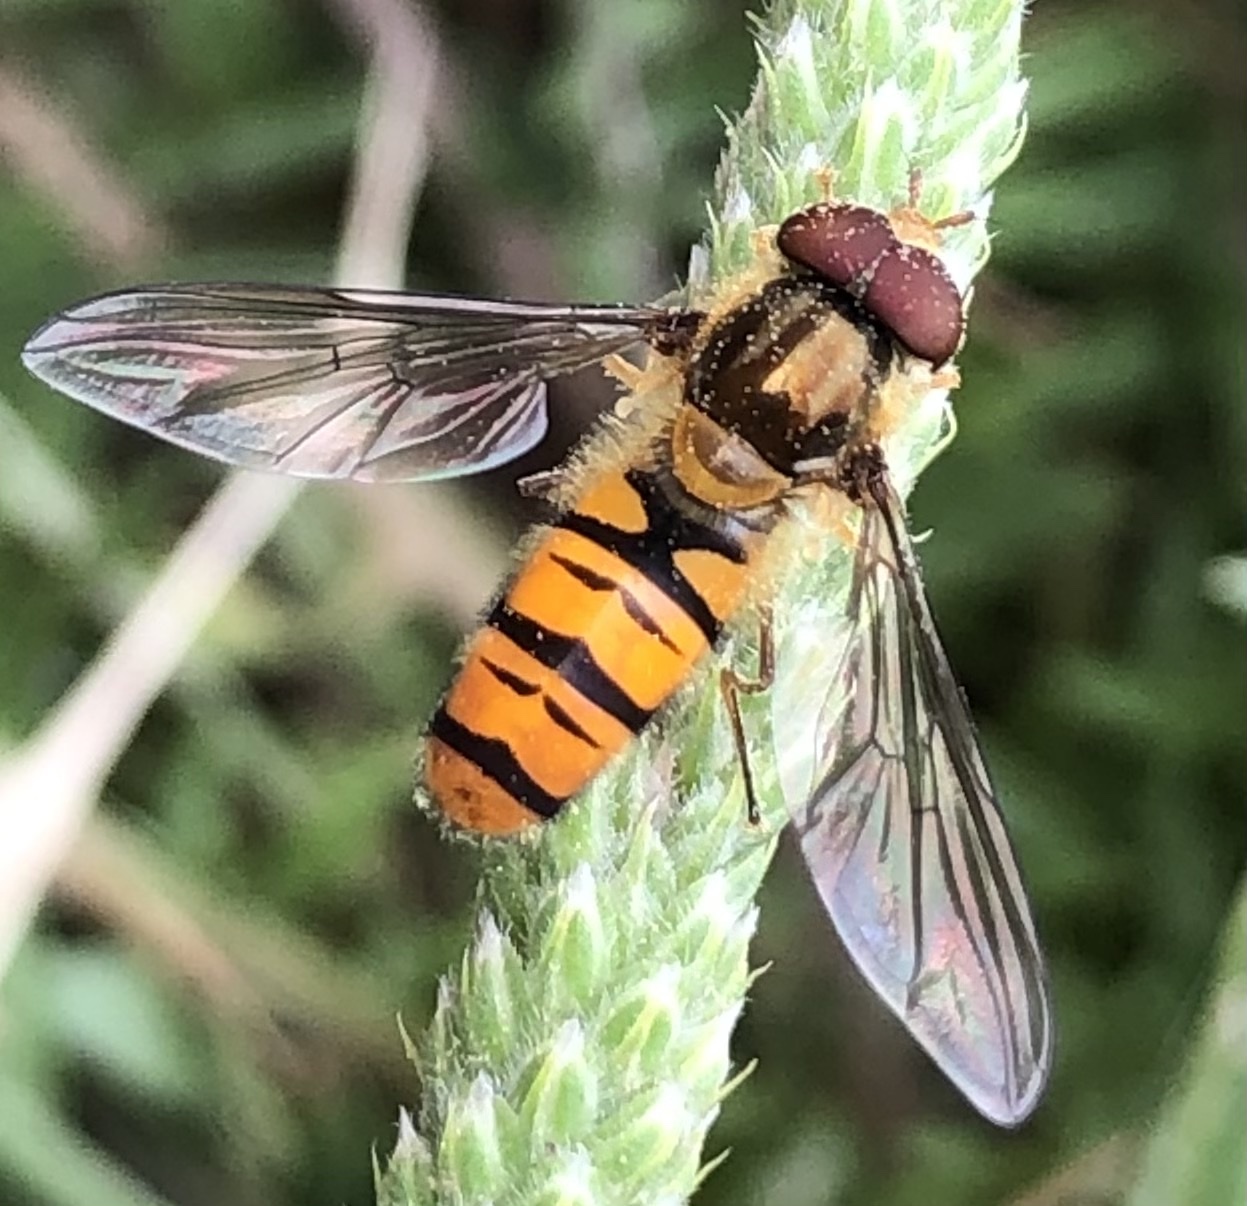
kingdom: Animalia
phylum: Arthropoda
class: Insecta
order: Diptera
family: Syrphidae
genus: Episyrphus
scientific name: Episyrphus balteatus
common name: Marmalade hoverfly
